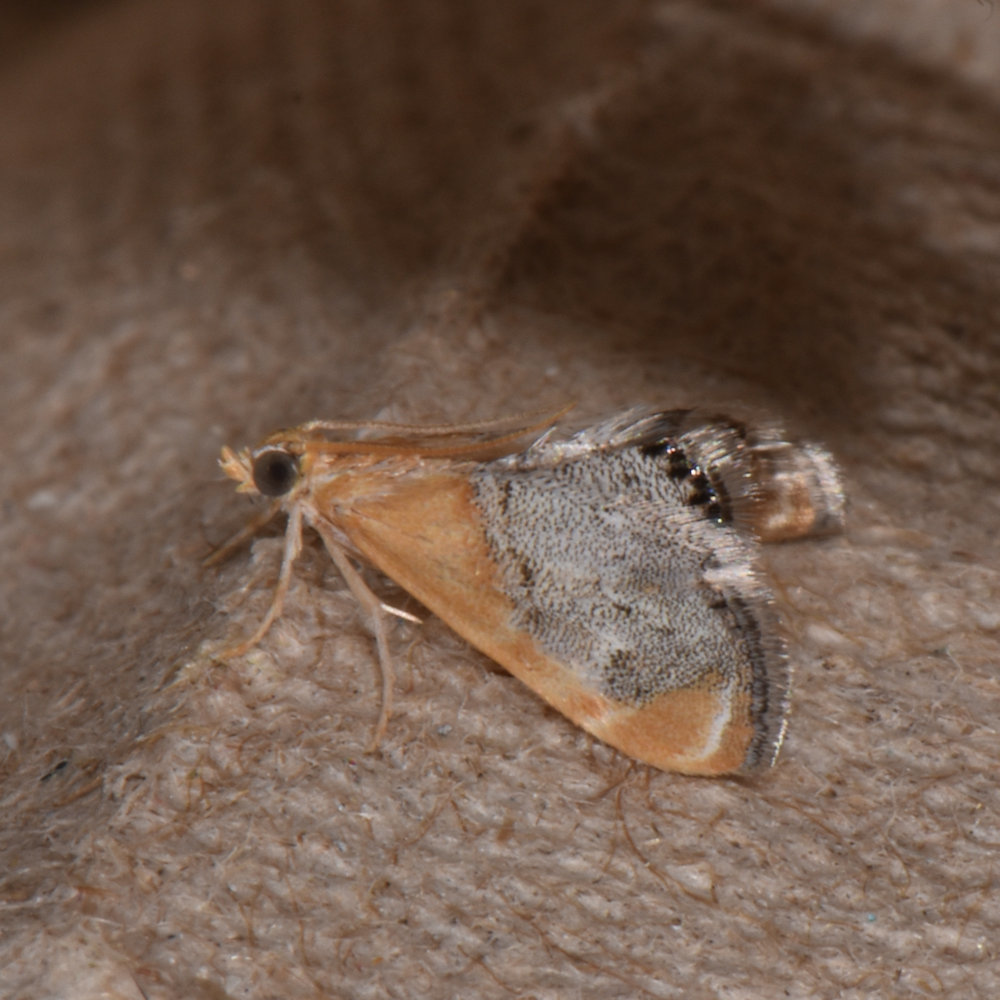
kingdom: Animalia
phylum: Arthropoda
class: Insecta
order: Lepidoptera
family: Crambidae
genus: Chalcoela
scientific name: Chalcoela iphitalis
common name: Sooty-winged chalcoela moth
